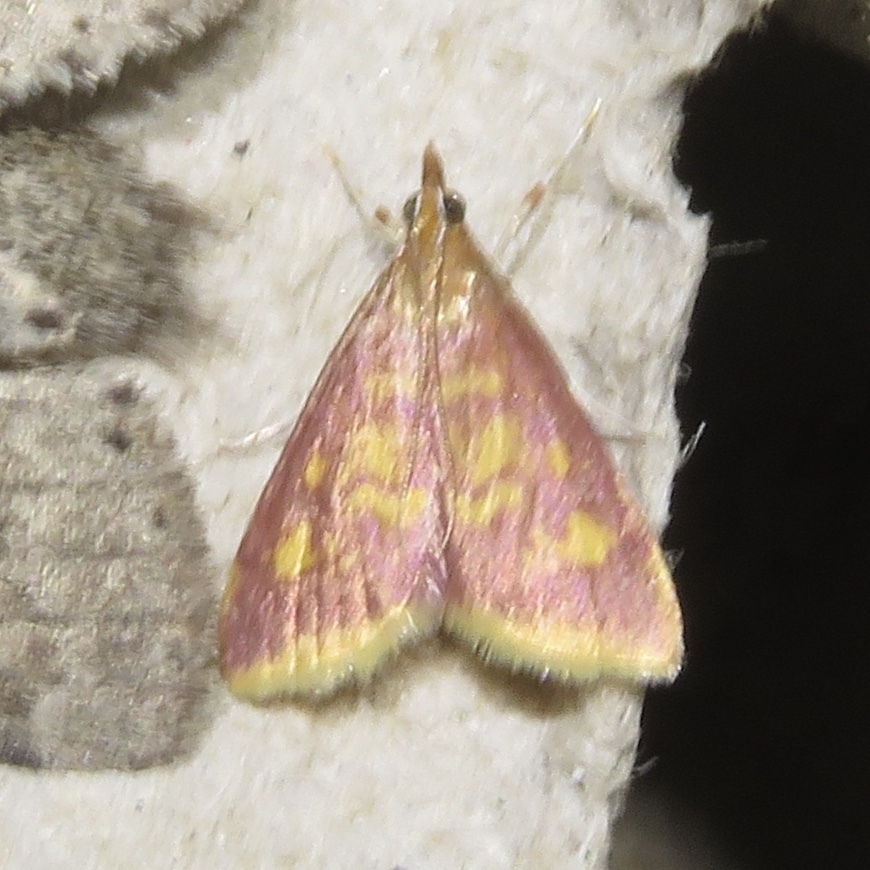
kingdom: Animalia
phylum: Arthropoda
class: Insecta
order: Lepidoptera
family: Crambidae
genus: Pyrausta
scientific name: Pyrausta acrionalis
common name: Mint-loving pyrausta moth
